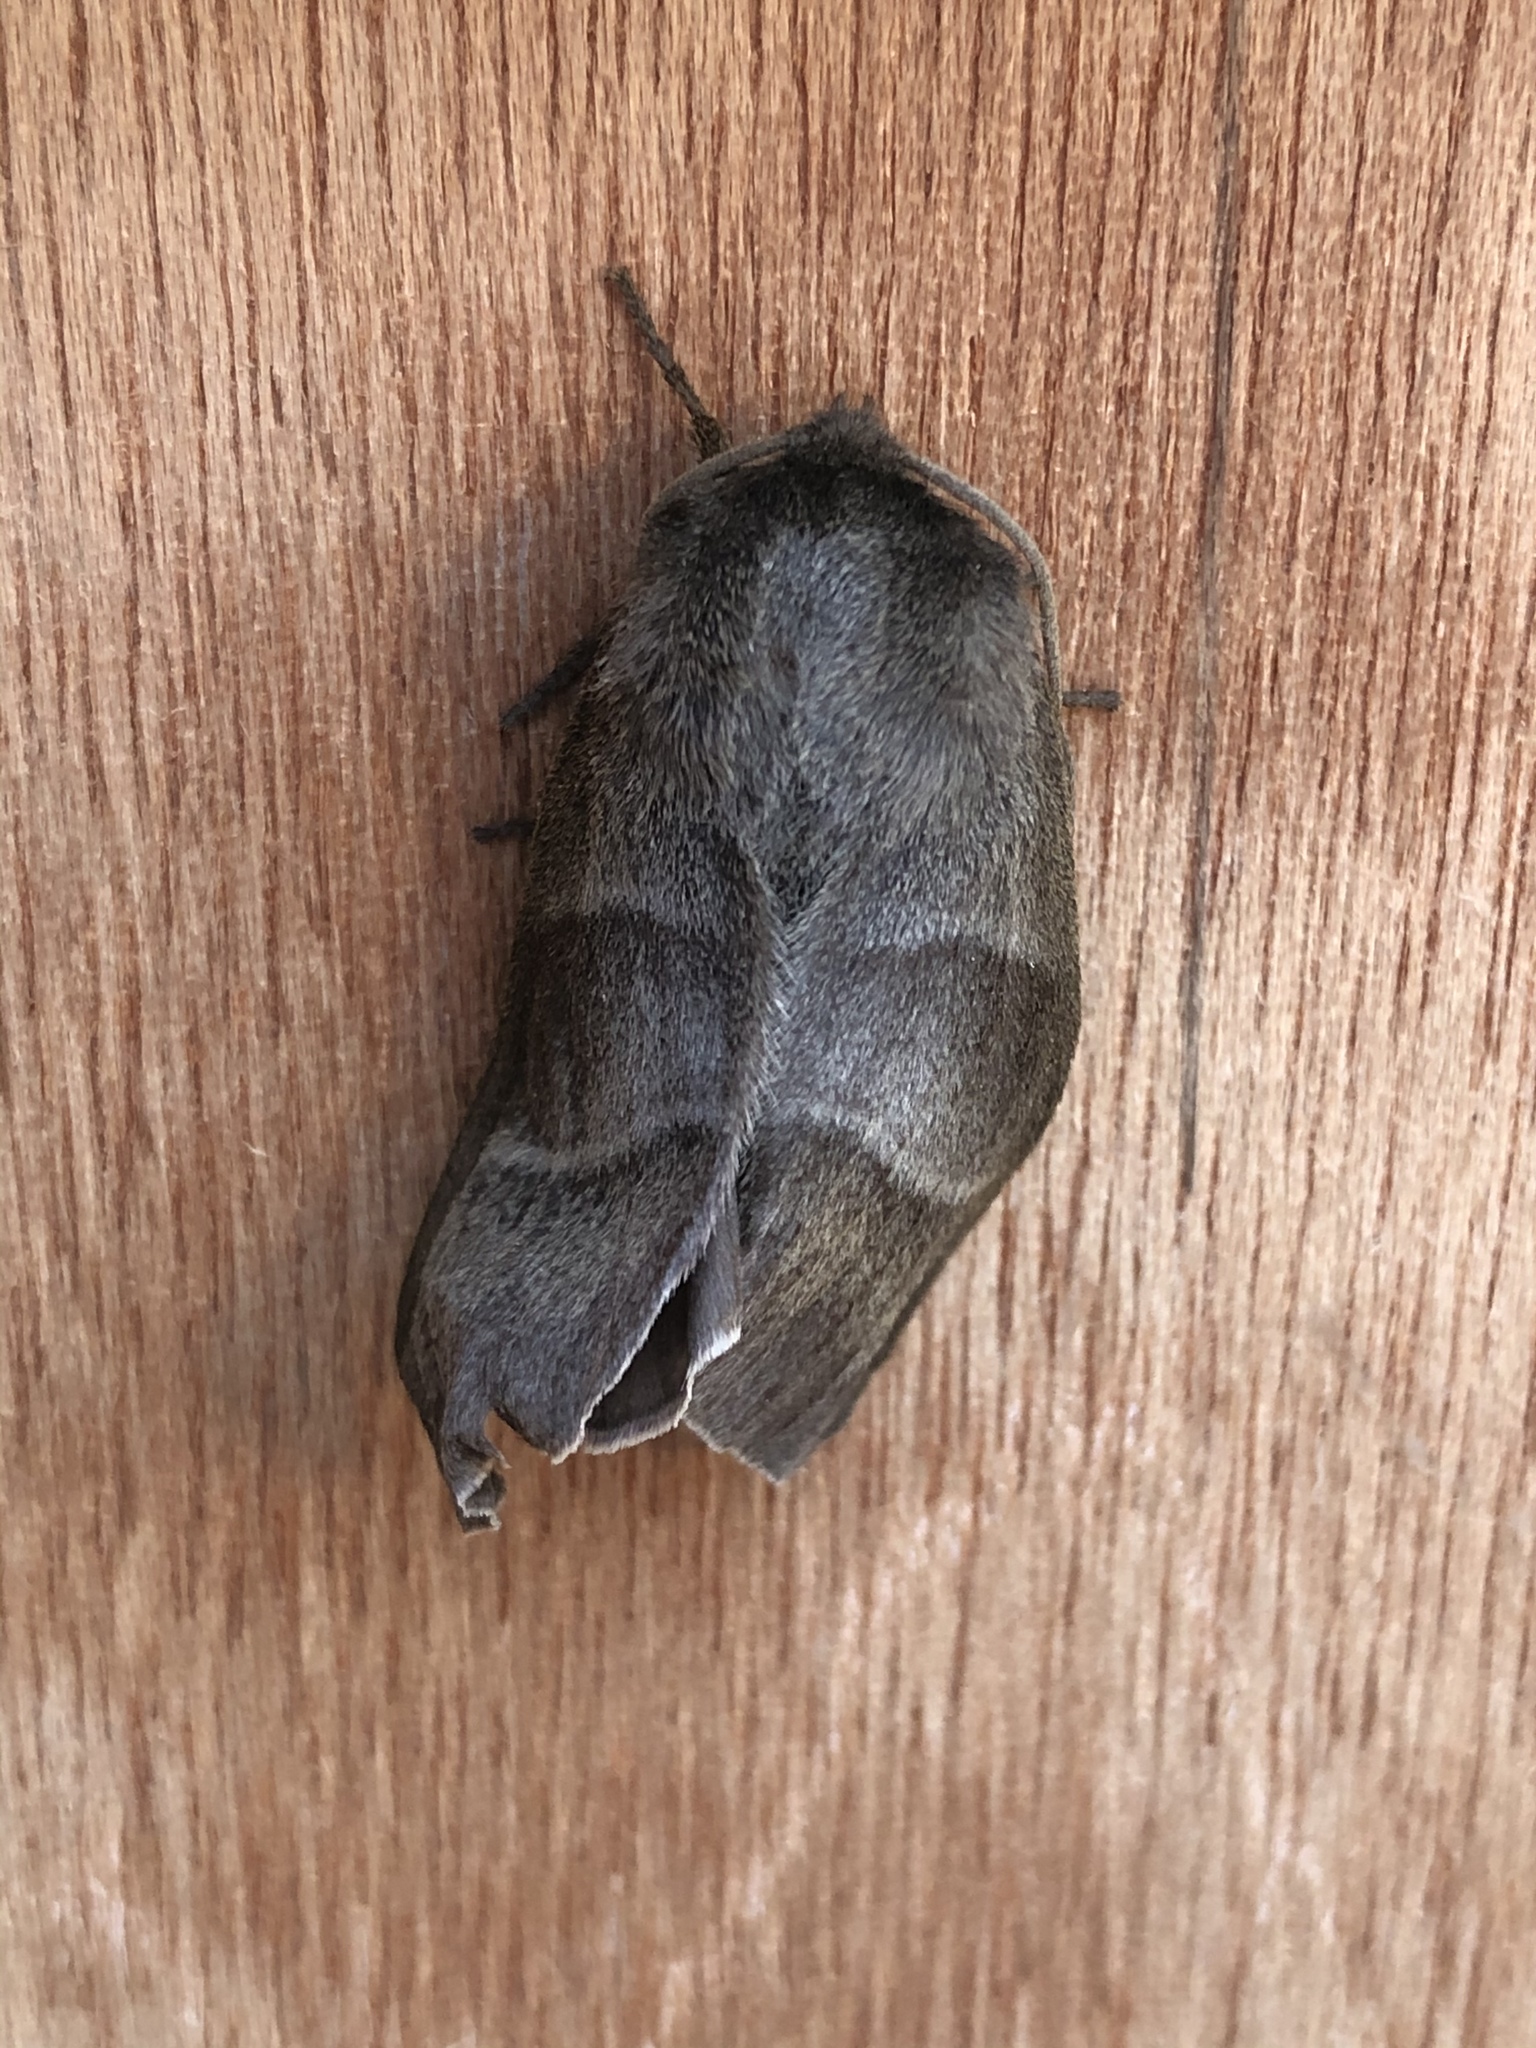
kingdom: Animalia
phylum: Arthropoda
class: Insecta
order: Lepidoptera
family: Lasiocampidae
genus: Macrothylacia
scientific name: Macrothylacia rubi
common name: Fox moth
